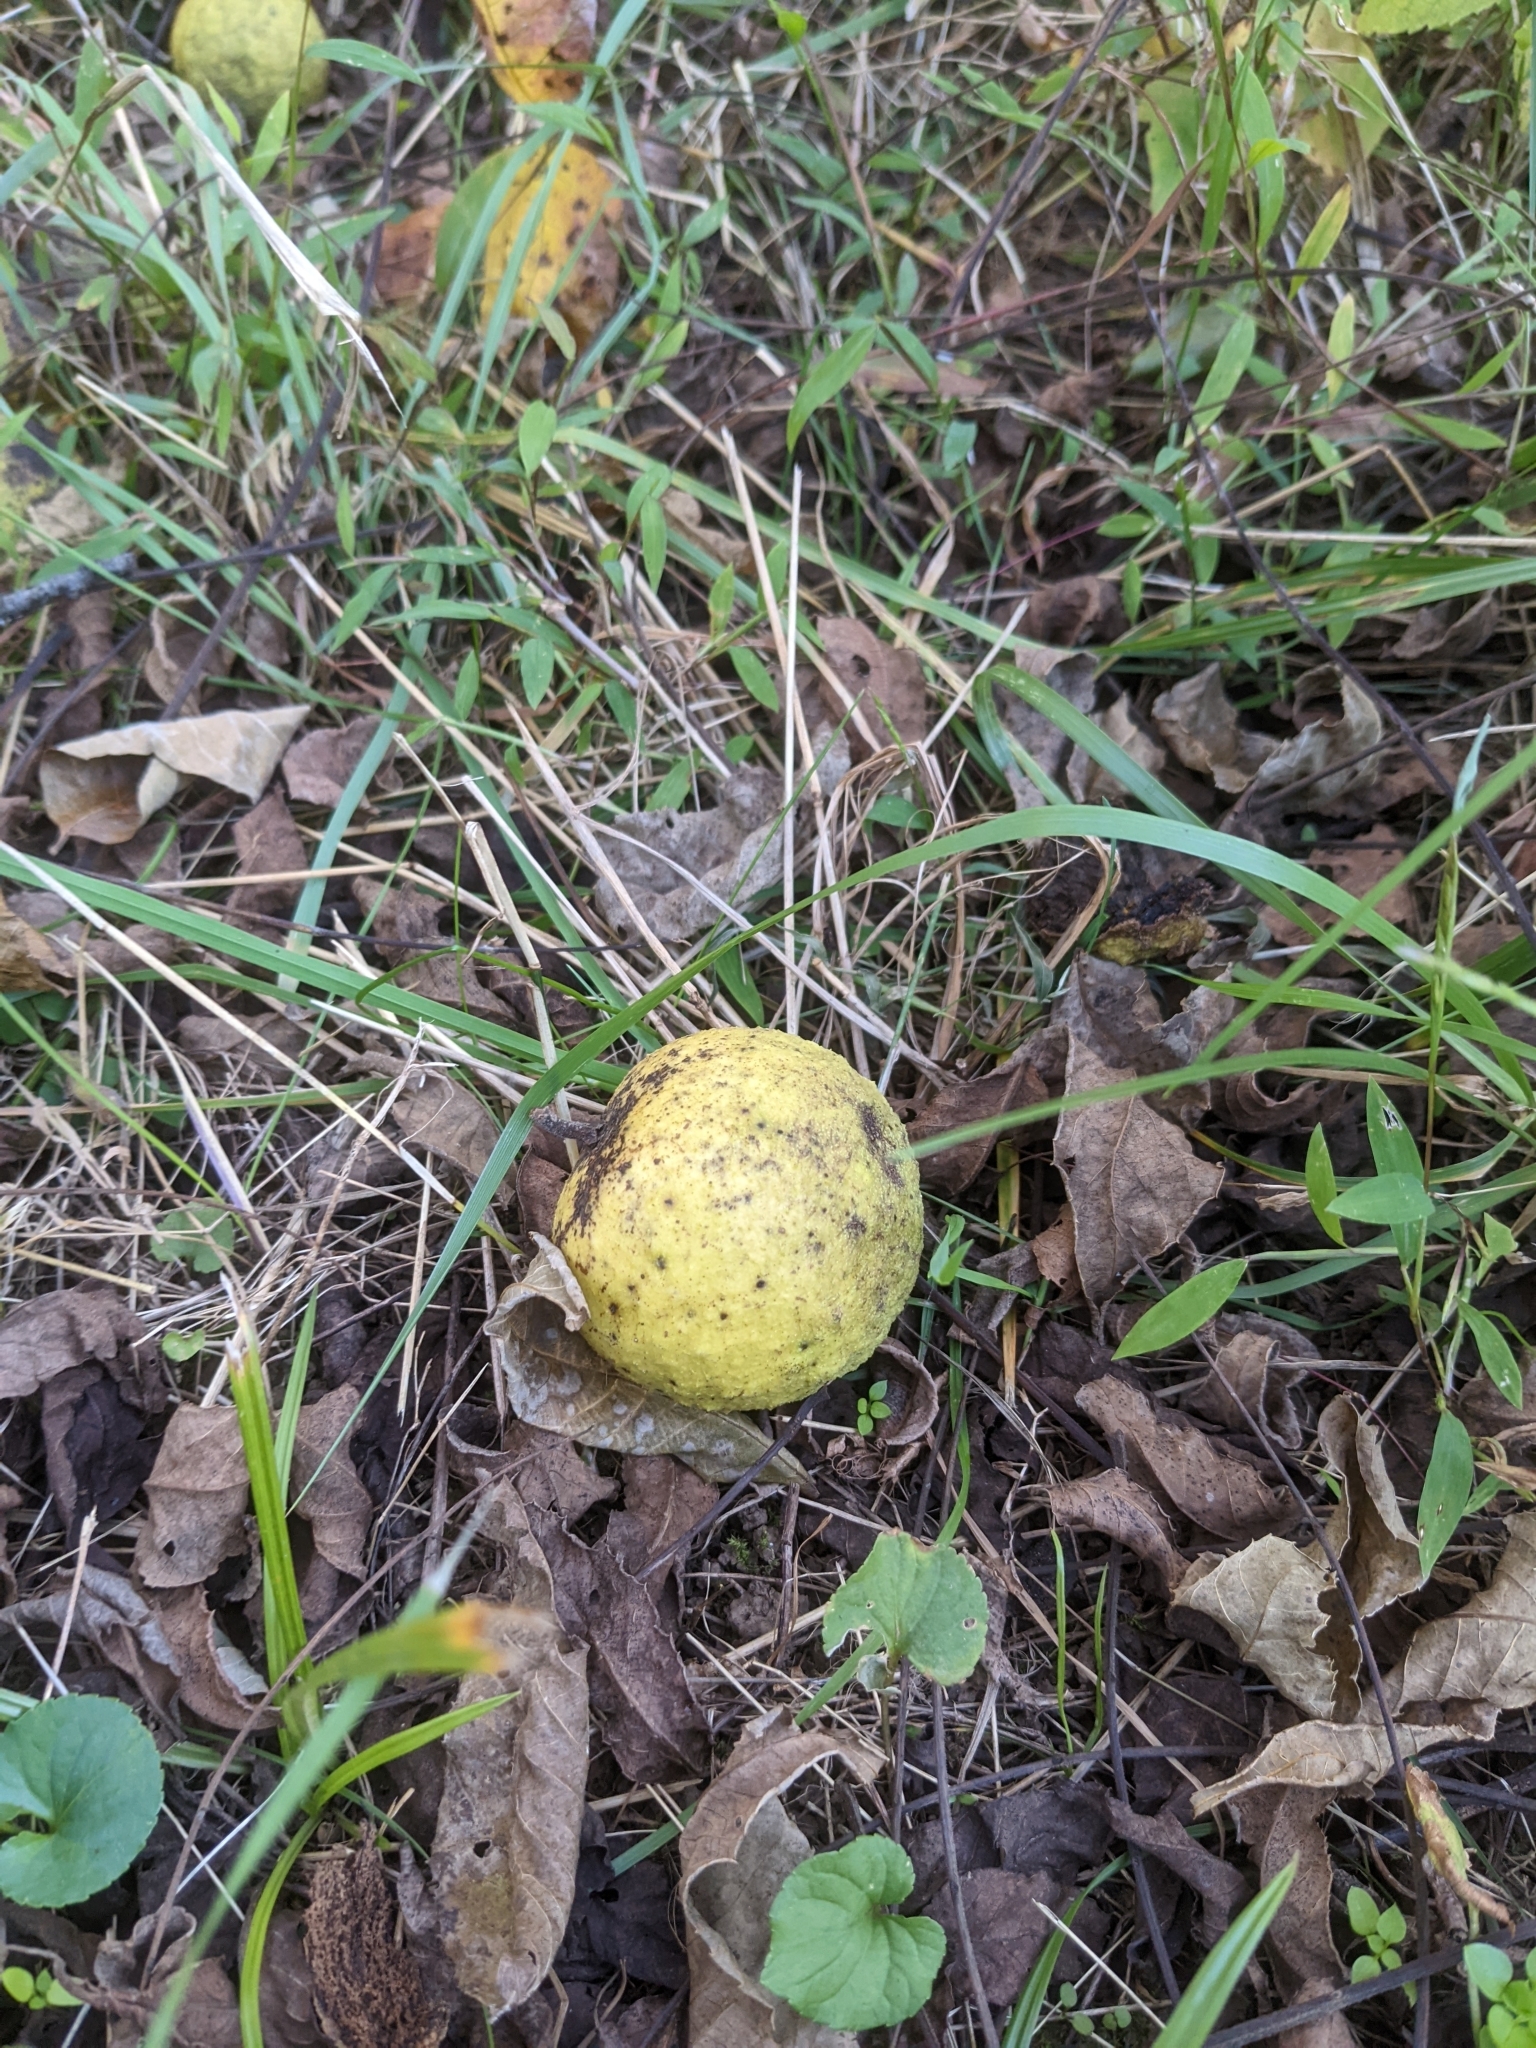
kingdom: Plantae
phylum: Tracheophyta
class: Magnoliopsida
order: Fagales
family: Juglandaceae
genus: Juglans
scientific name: Juglans nigra
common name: Black walnut
